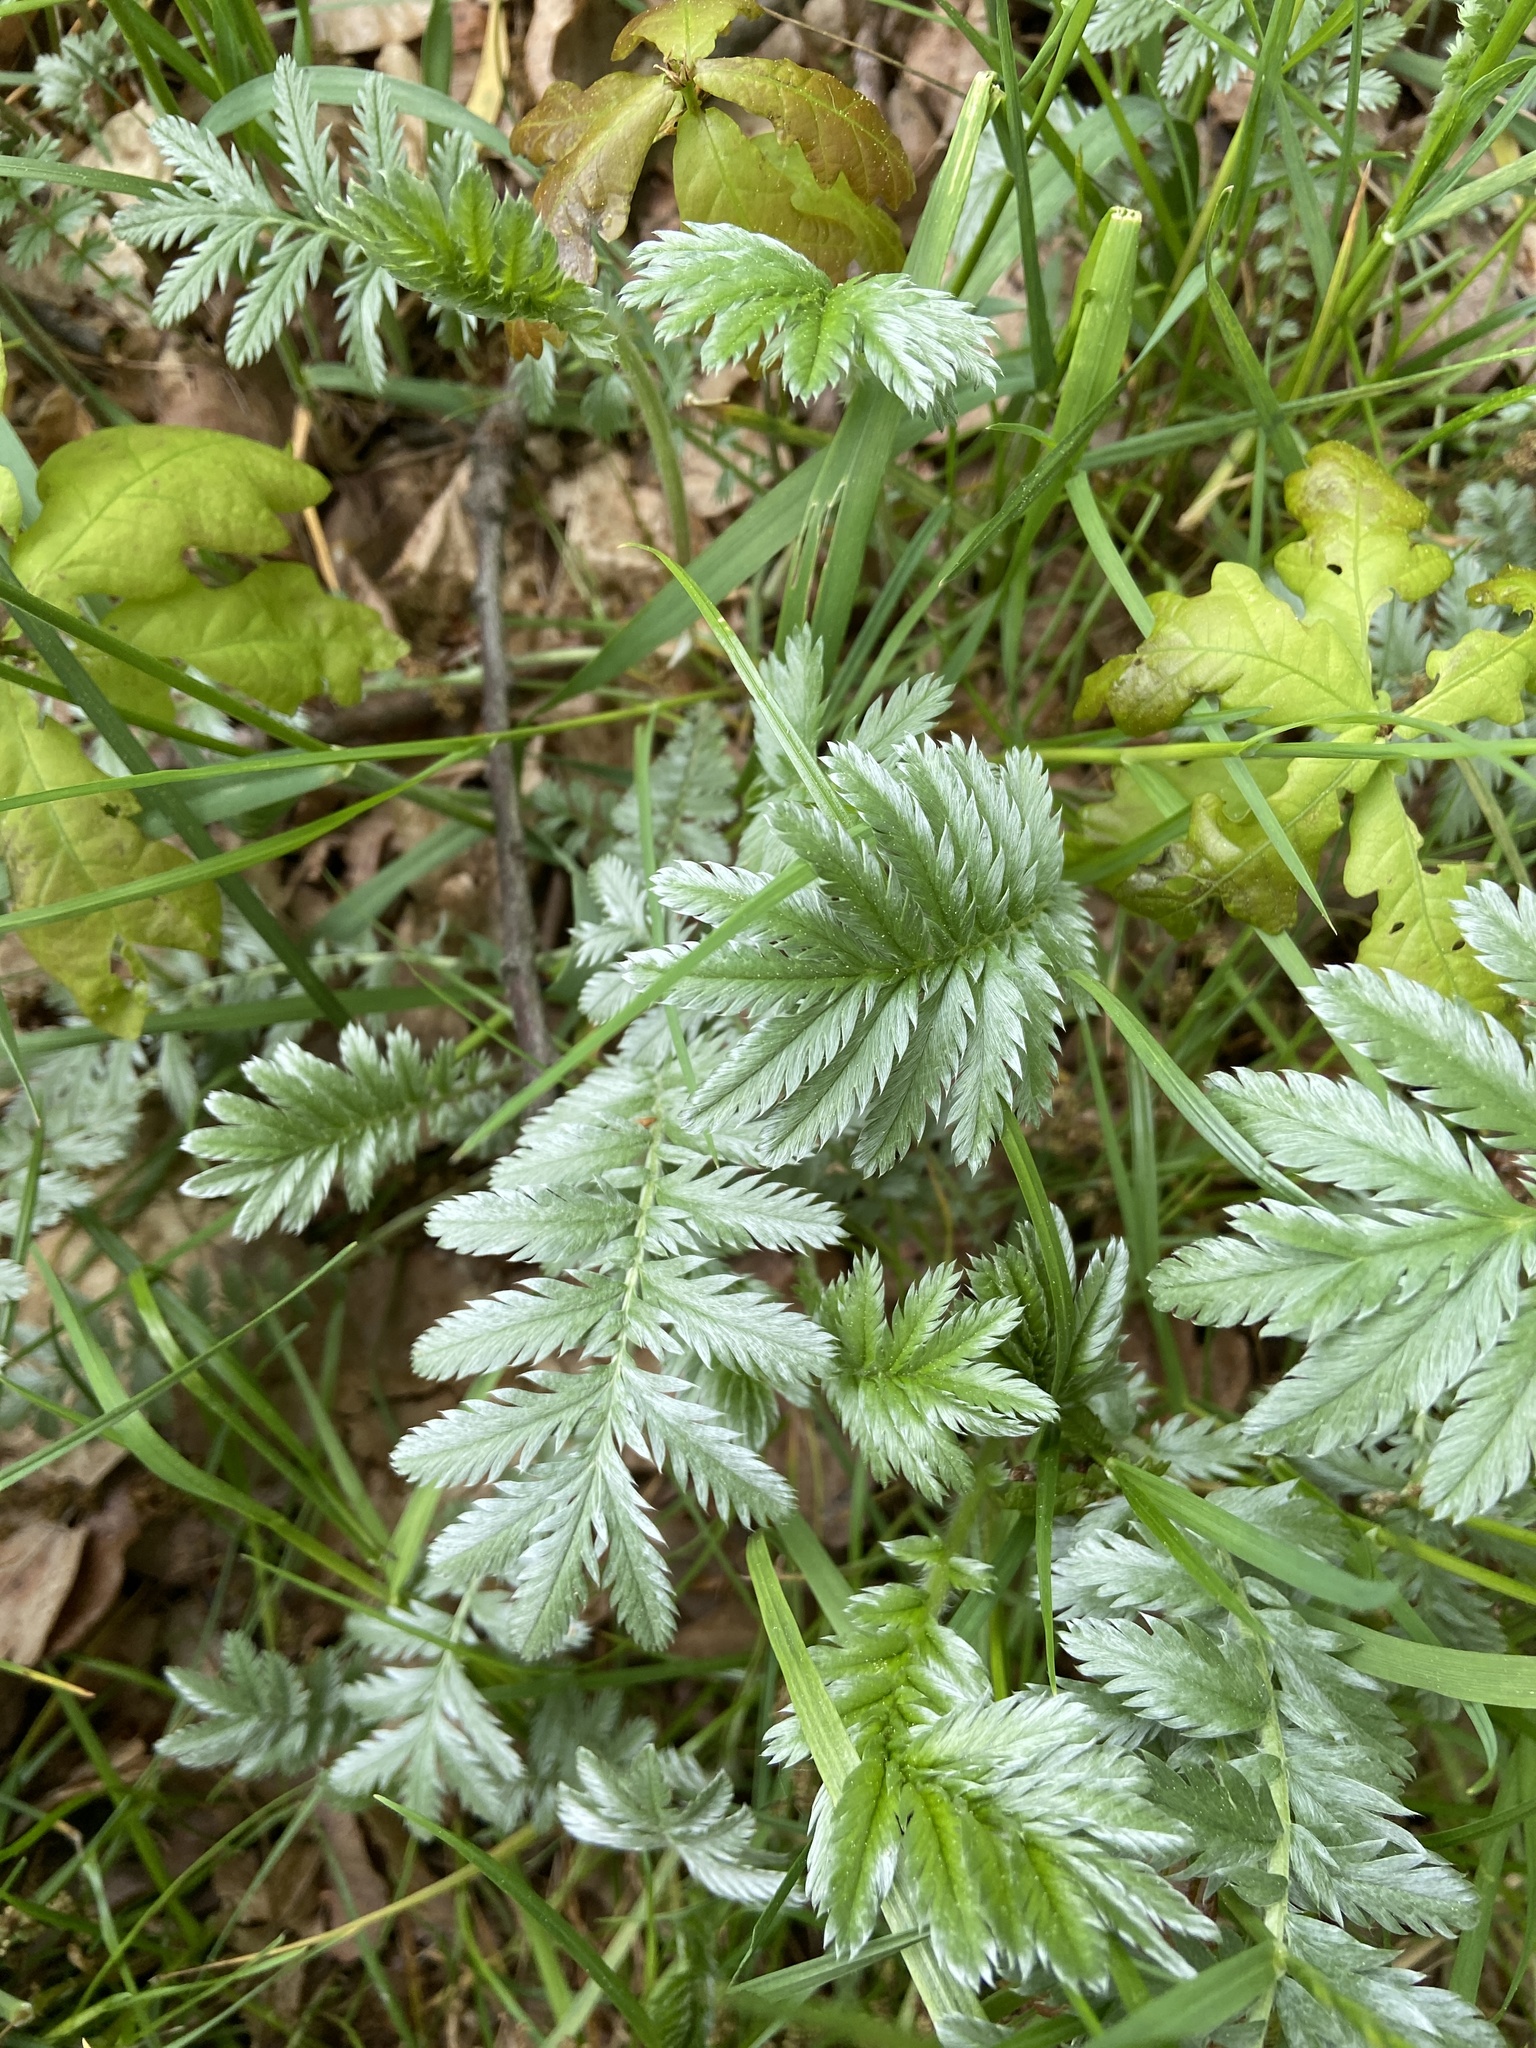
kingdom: Plantae
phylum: Tracheophyta
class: Magnoliopsida
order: Rosales
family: Rosaceae
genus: Argentina
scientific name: Argentina anserina
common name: Common silverweed
